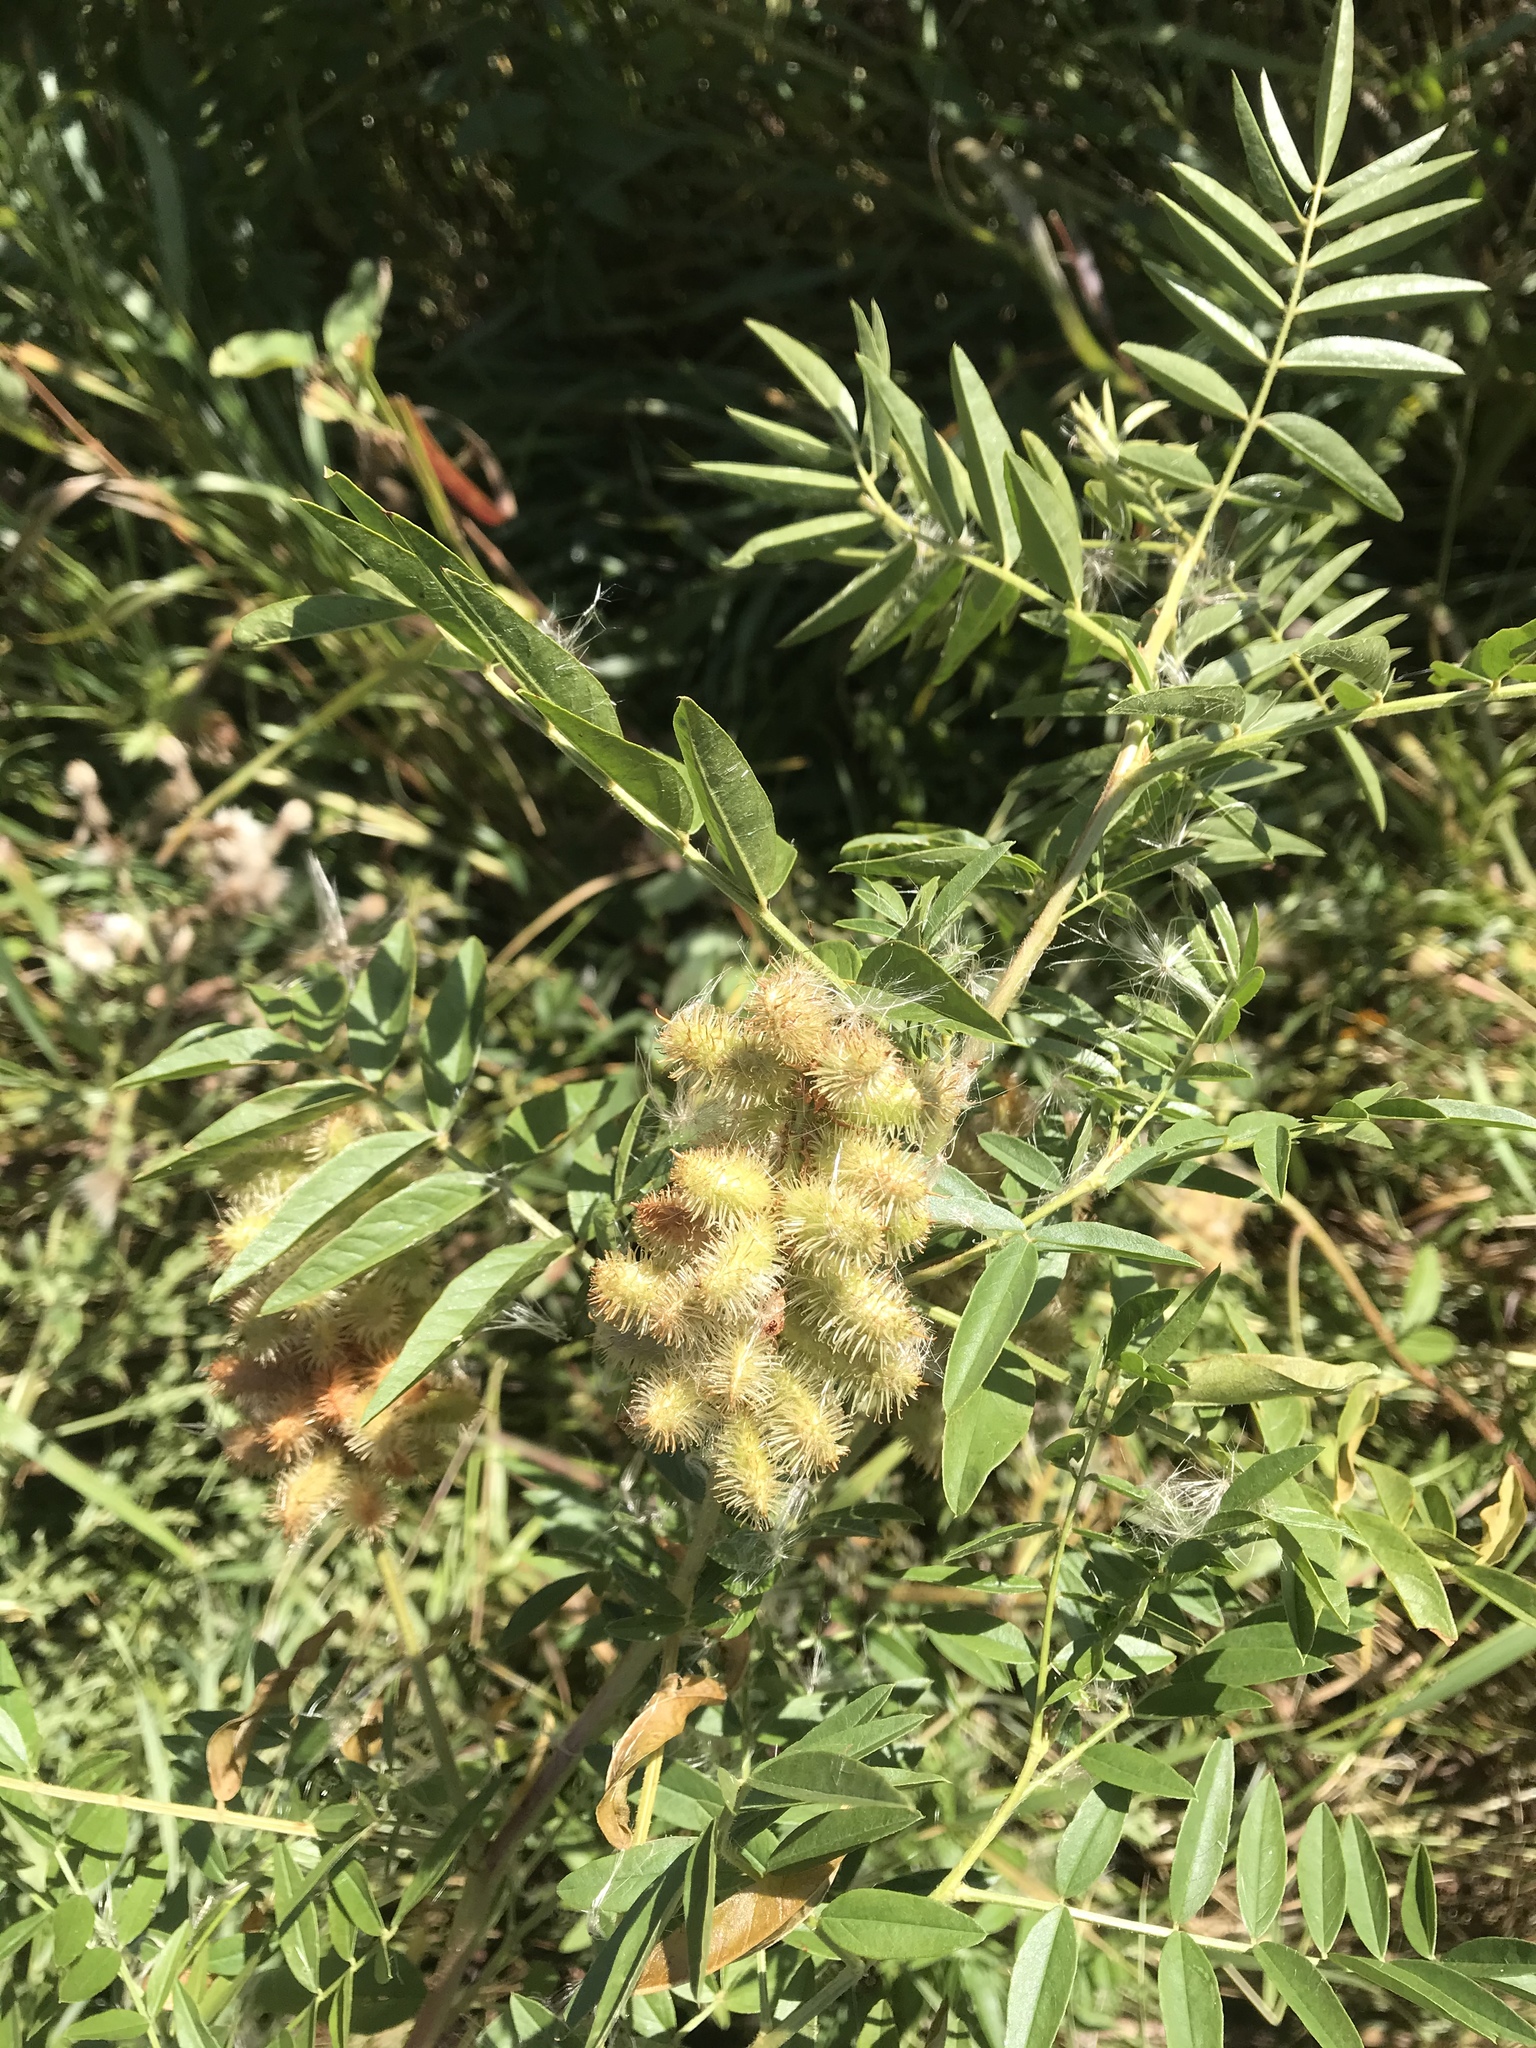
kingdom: Plantae
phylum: Tracheophyta
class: Magnoliopsida
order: Fabales
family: Fabaceae
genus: Glycyrrhiza
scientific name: Glycyrrhiza lepidota
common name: American liquorice
